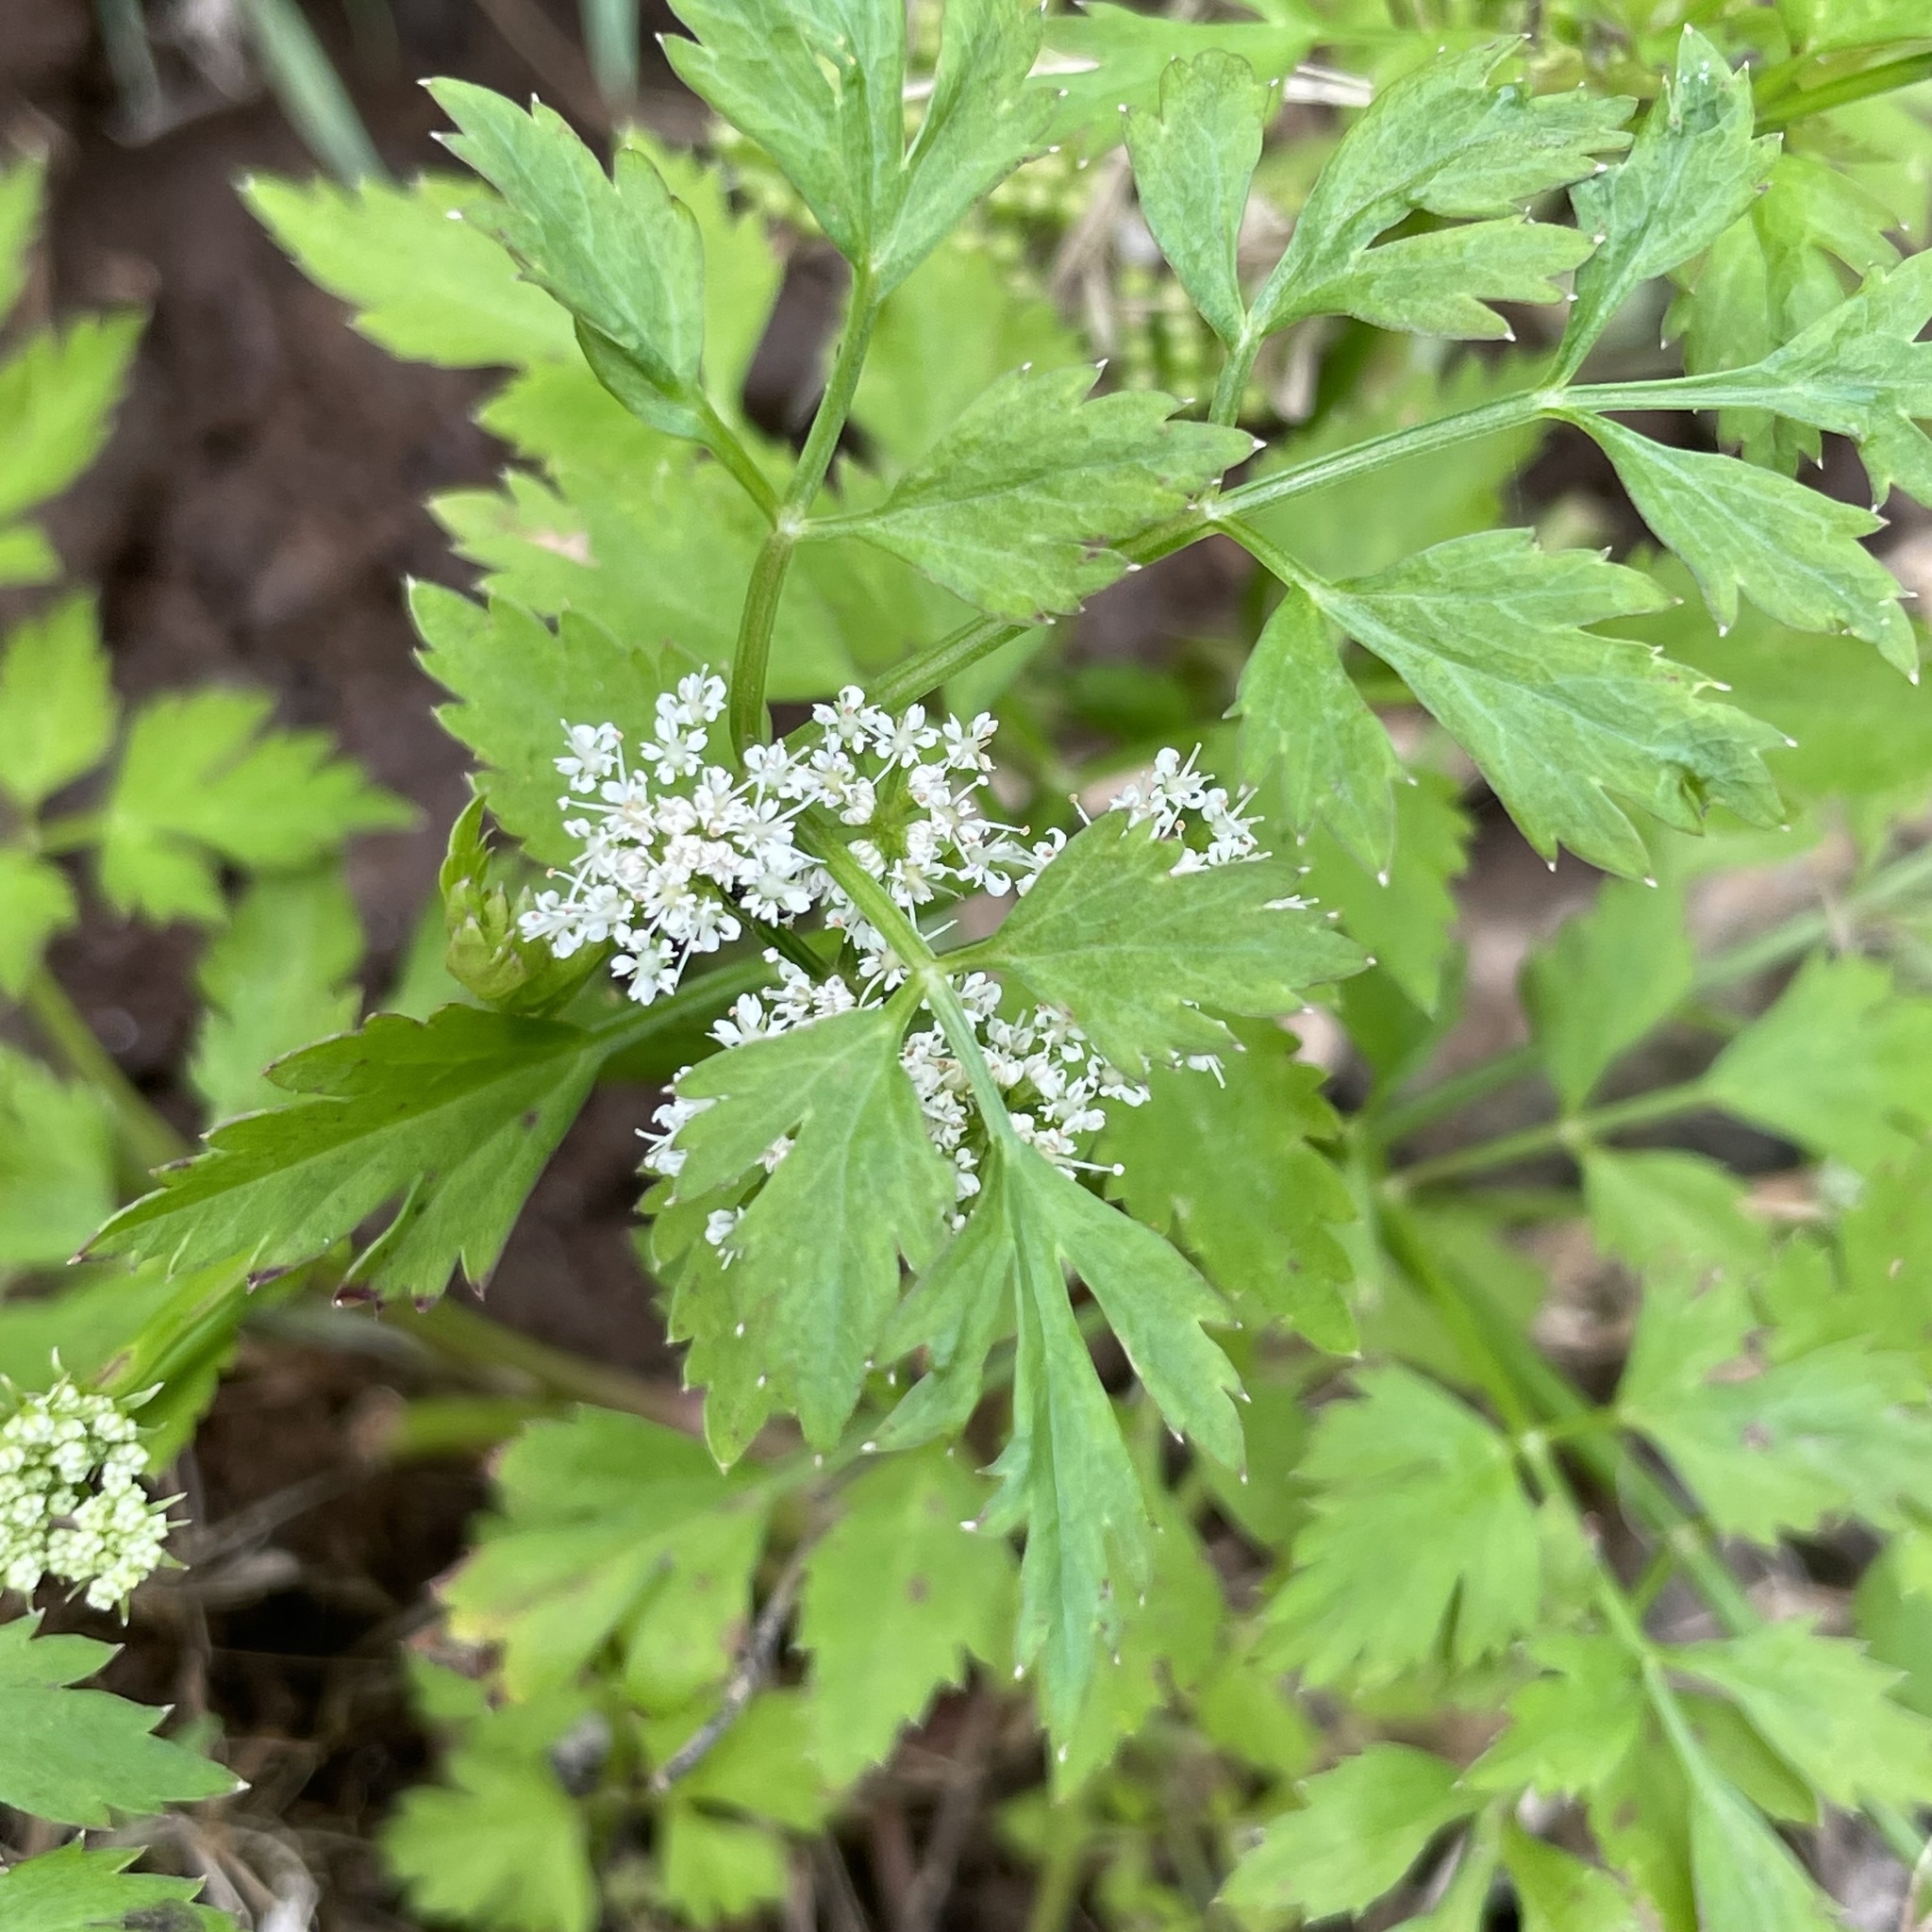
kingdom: Plantae
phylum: Tracheophyta
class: Magnoliopsida
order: Apiales
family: Apiaceae
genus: Oenanthe
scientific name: Oenanthe javanica
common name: Java water-dropwort
